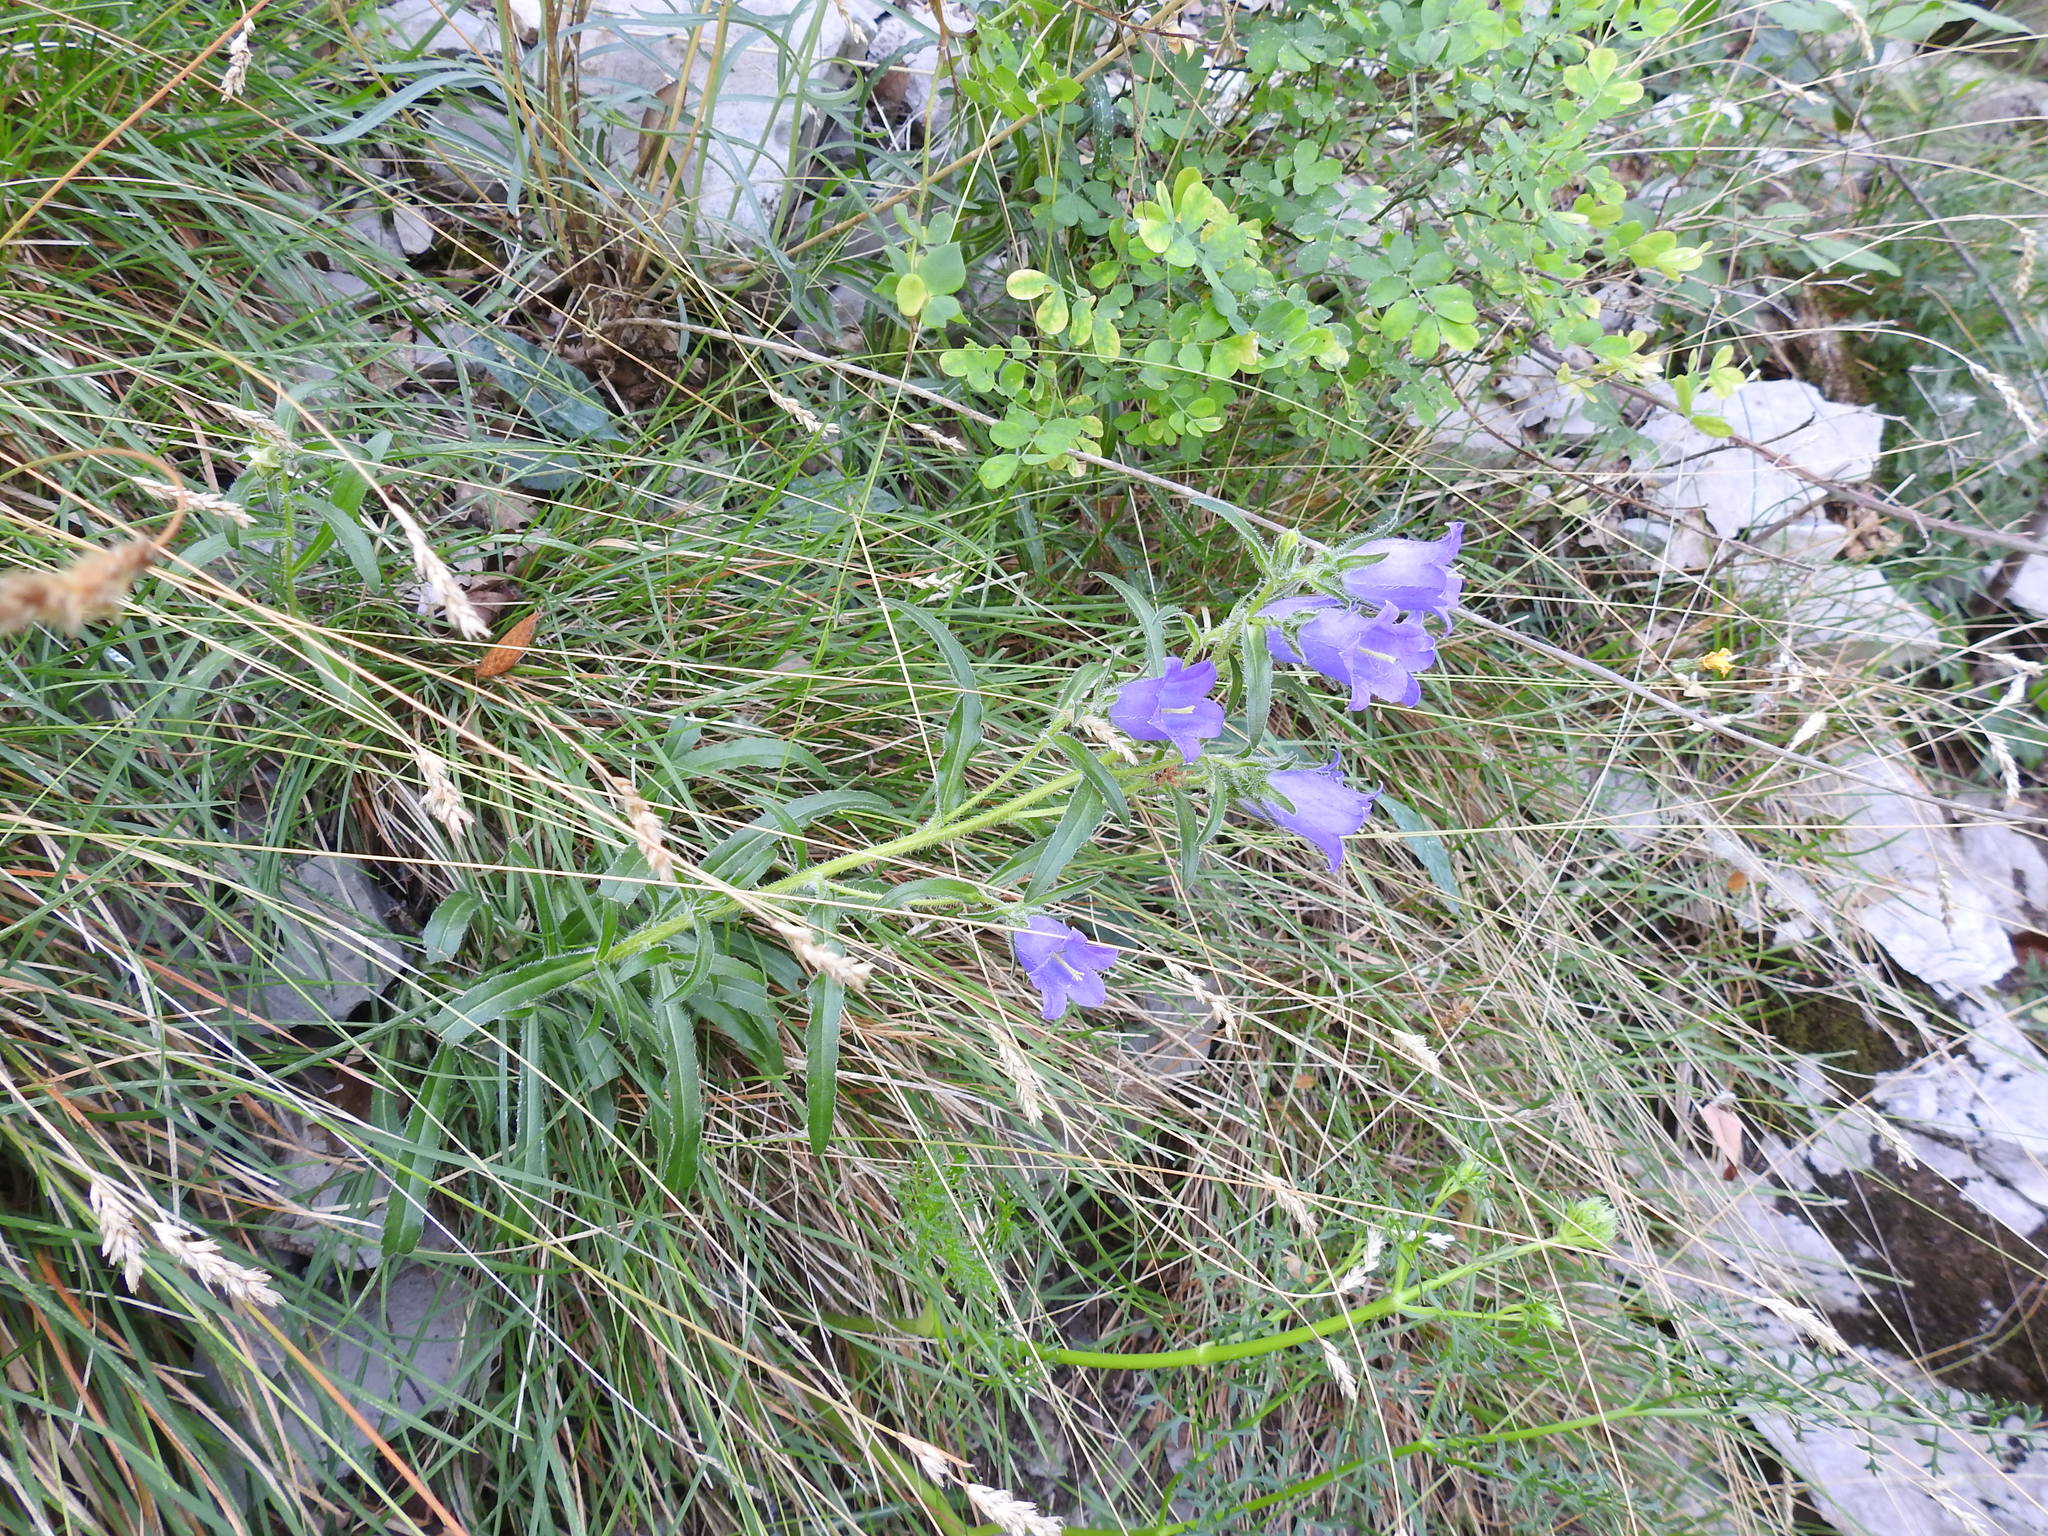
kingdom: Plantae
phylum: Tracheophyta
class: Magnoliopsida
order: Asterales
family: Campanulaceae
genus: Campanula
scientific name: Campanula speciosa
